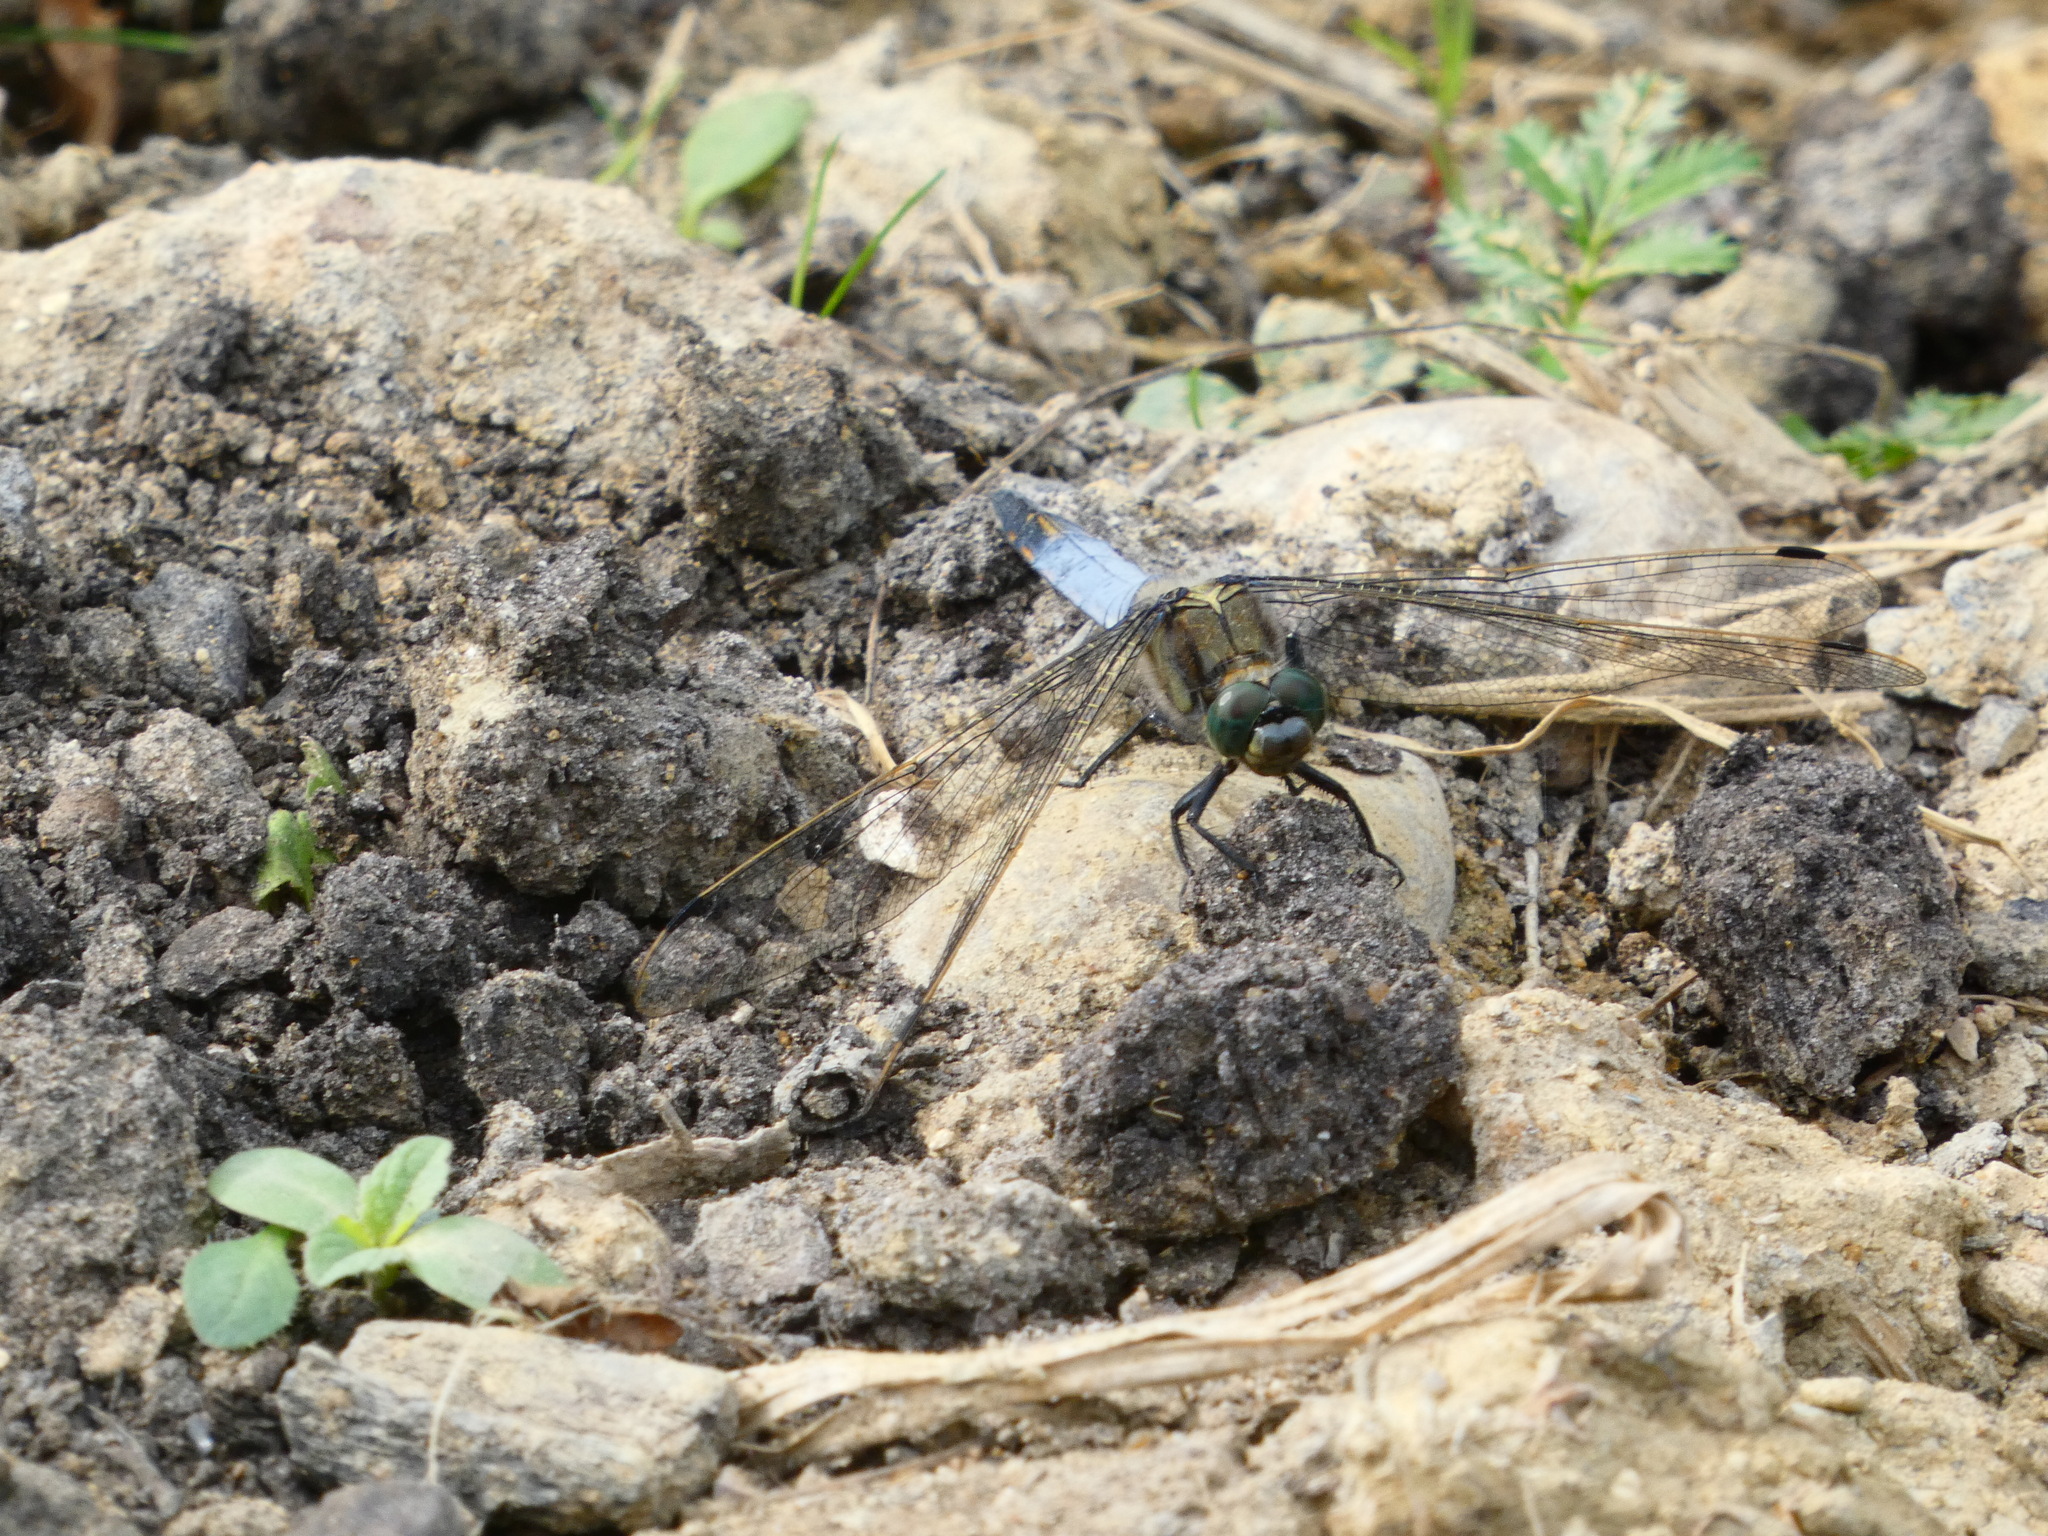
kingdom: Animalia
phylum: Arthropoda
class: Insecta
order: Odonata
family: Libellulidae
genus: Orthetrum
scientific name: Orthetrum cancellatum
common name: Black-tailed skimmer
